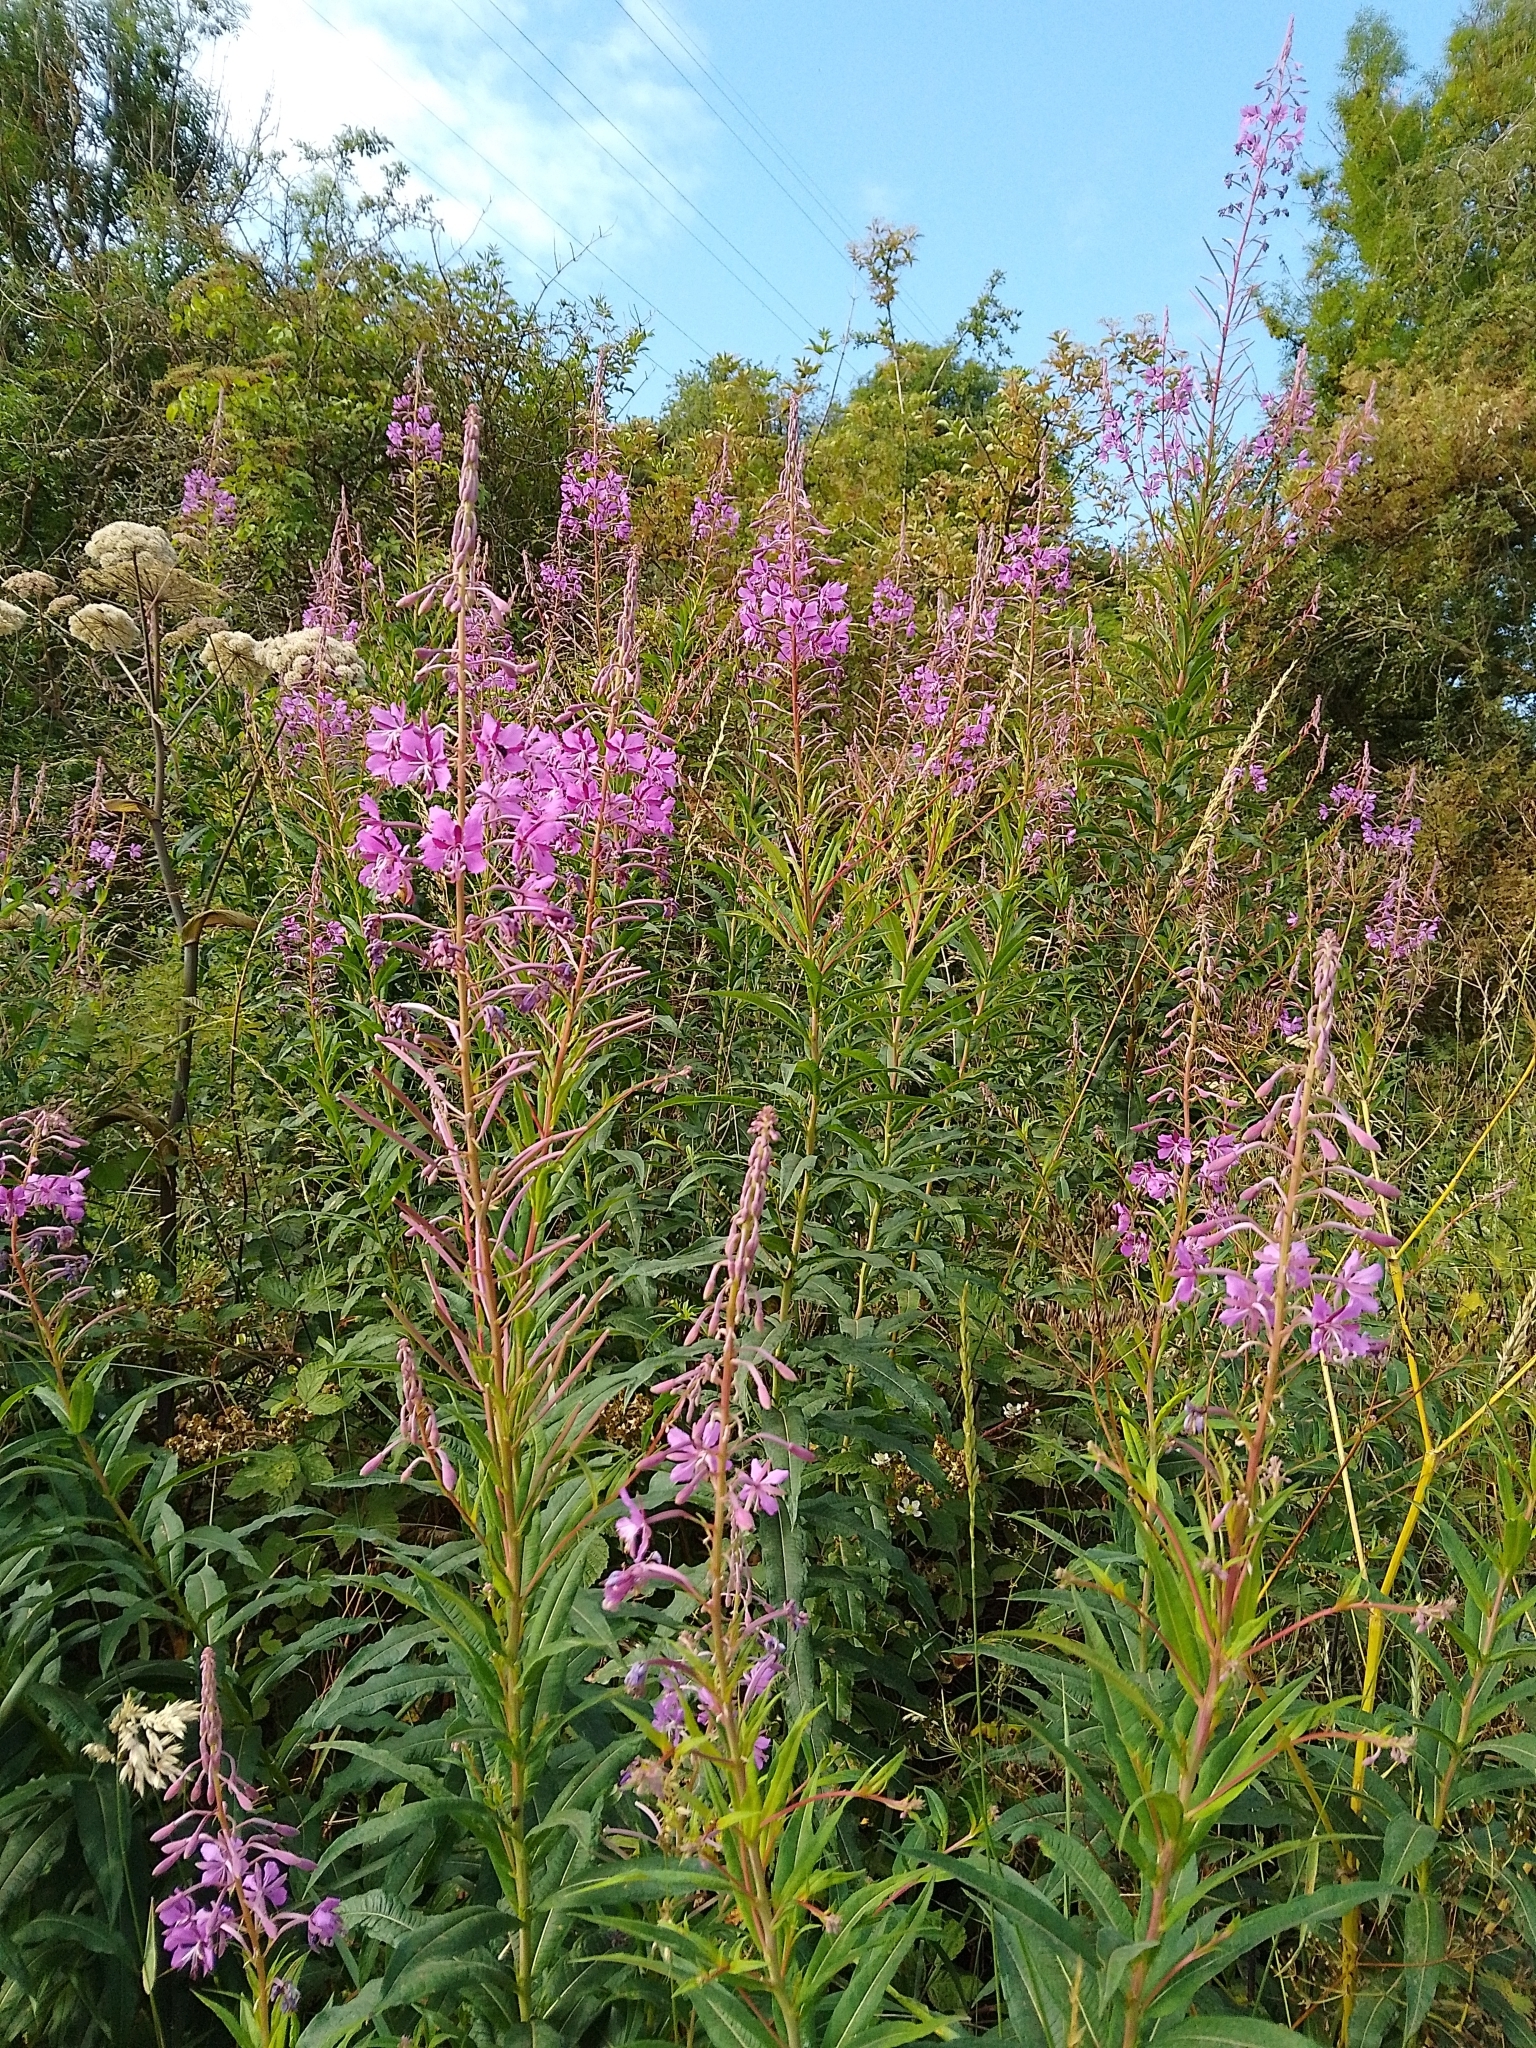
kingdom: Plantae
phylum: Tracheophyta
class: Magnoliopsida
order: Myrtales
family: Onagraceae
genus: Chamaenerion
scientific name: Chamaenerion angustifolium
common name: Fireweed
